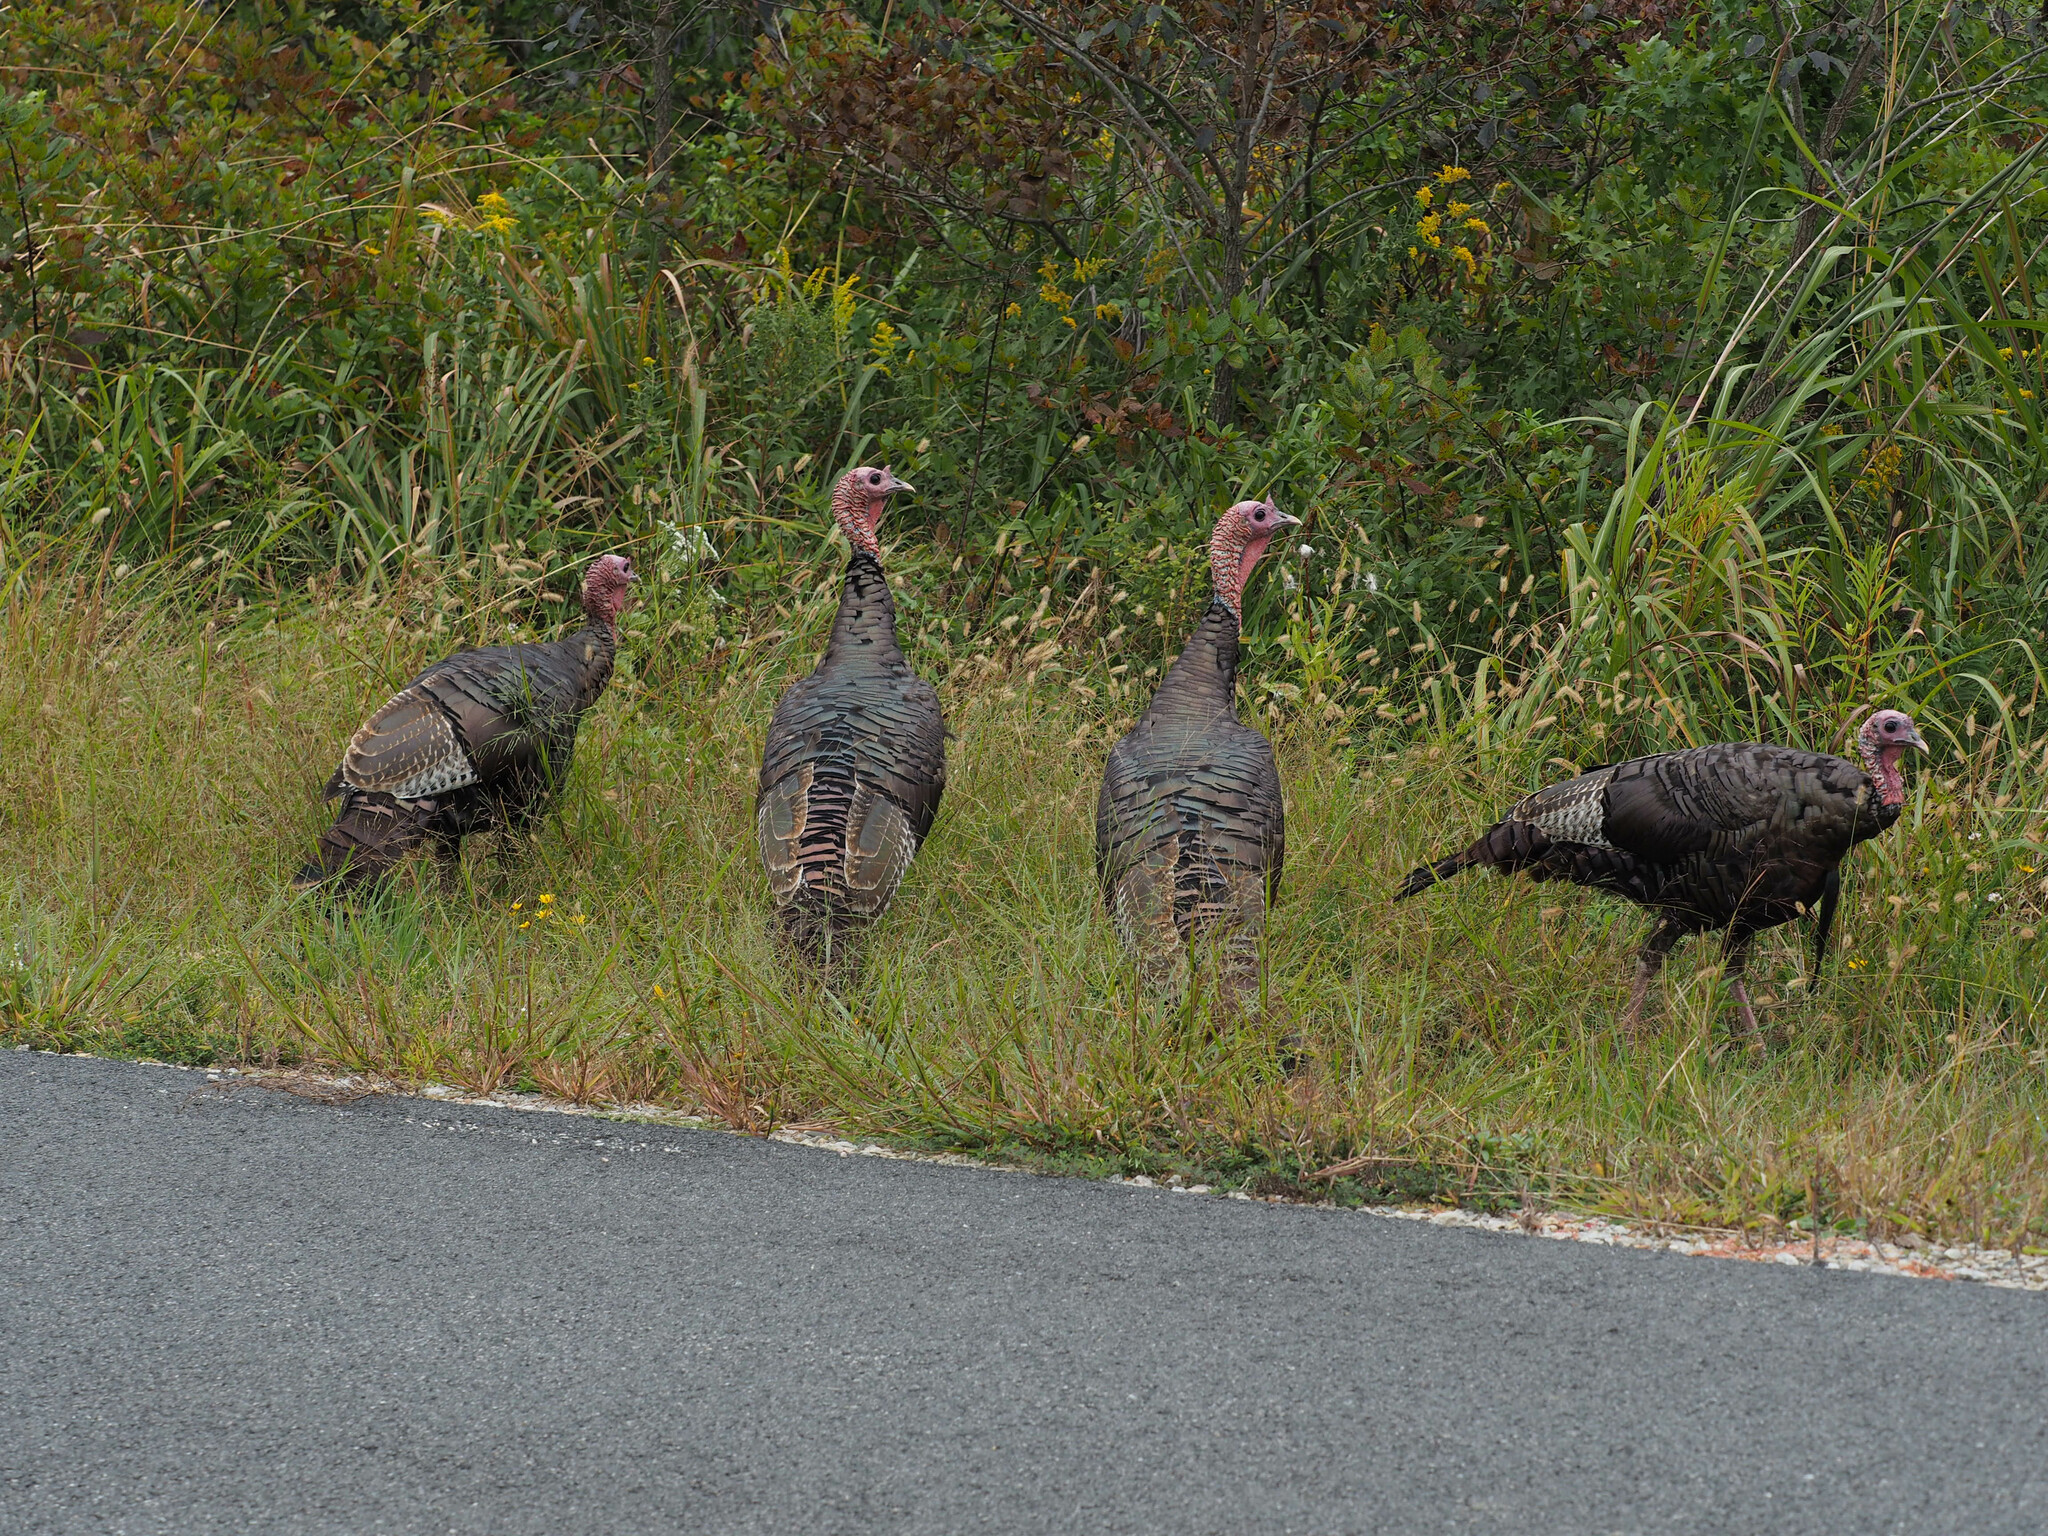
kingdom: Animalia
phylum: Chordata
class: Aves
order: Galliformes
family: Phasianidae
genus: Meleagris
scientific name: Meleagris gallopavo
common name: Wild turkey
